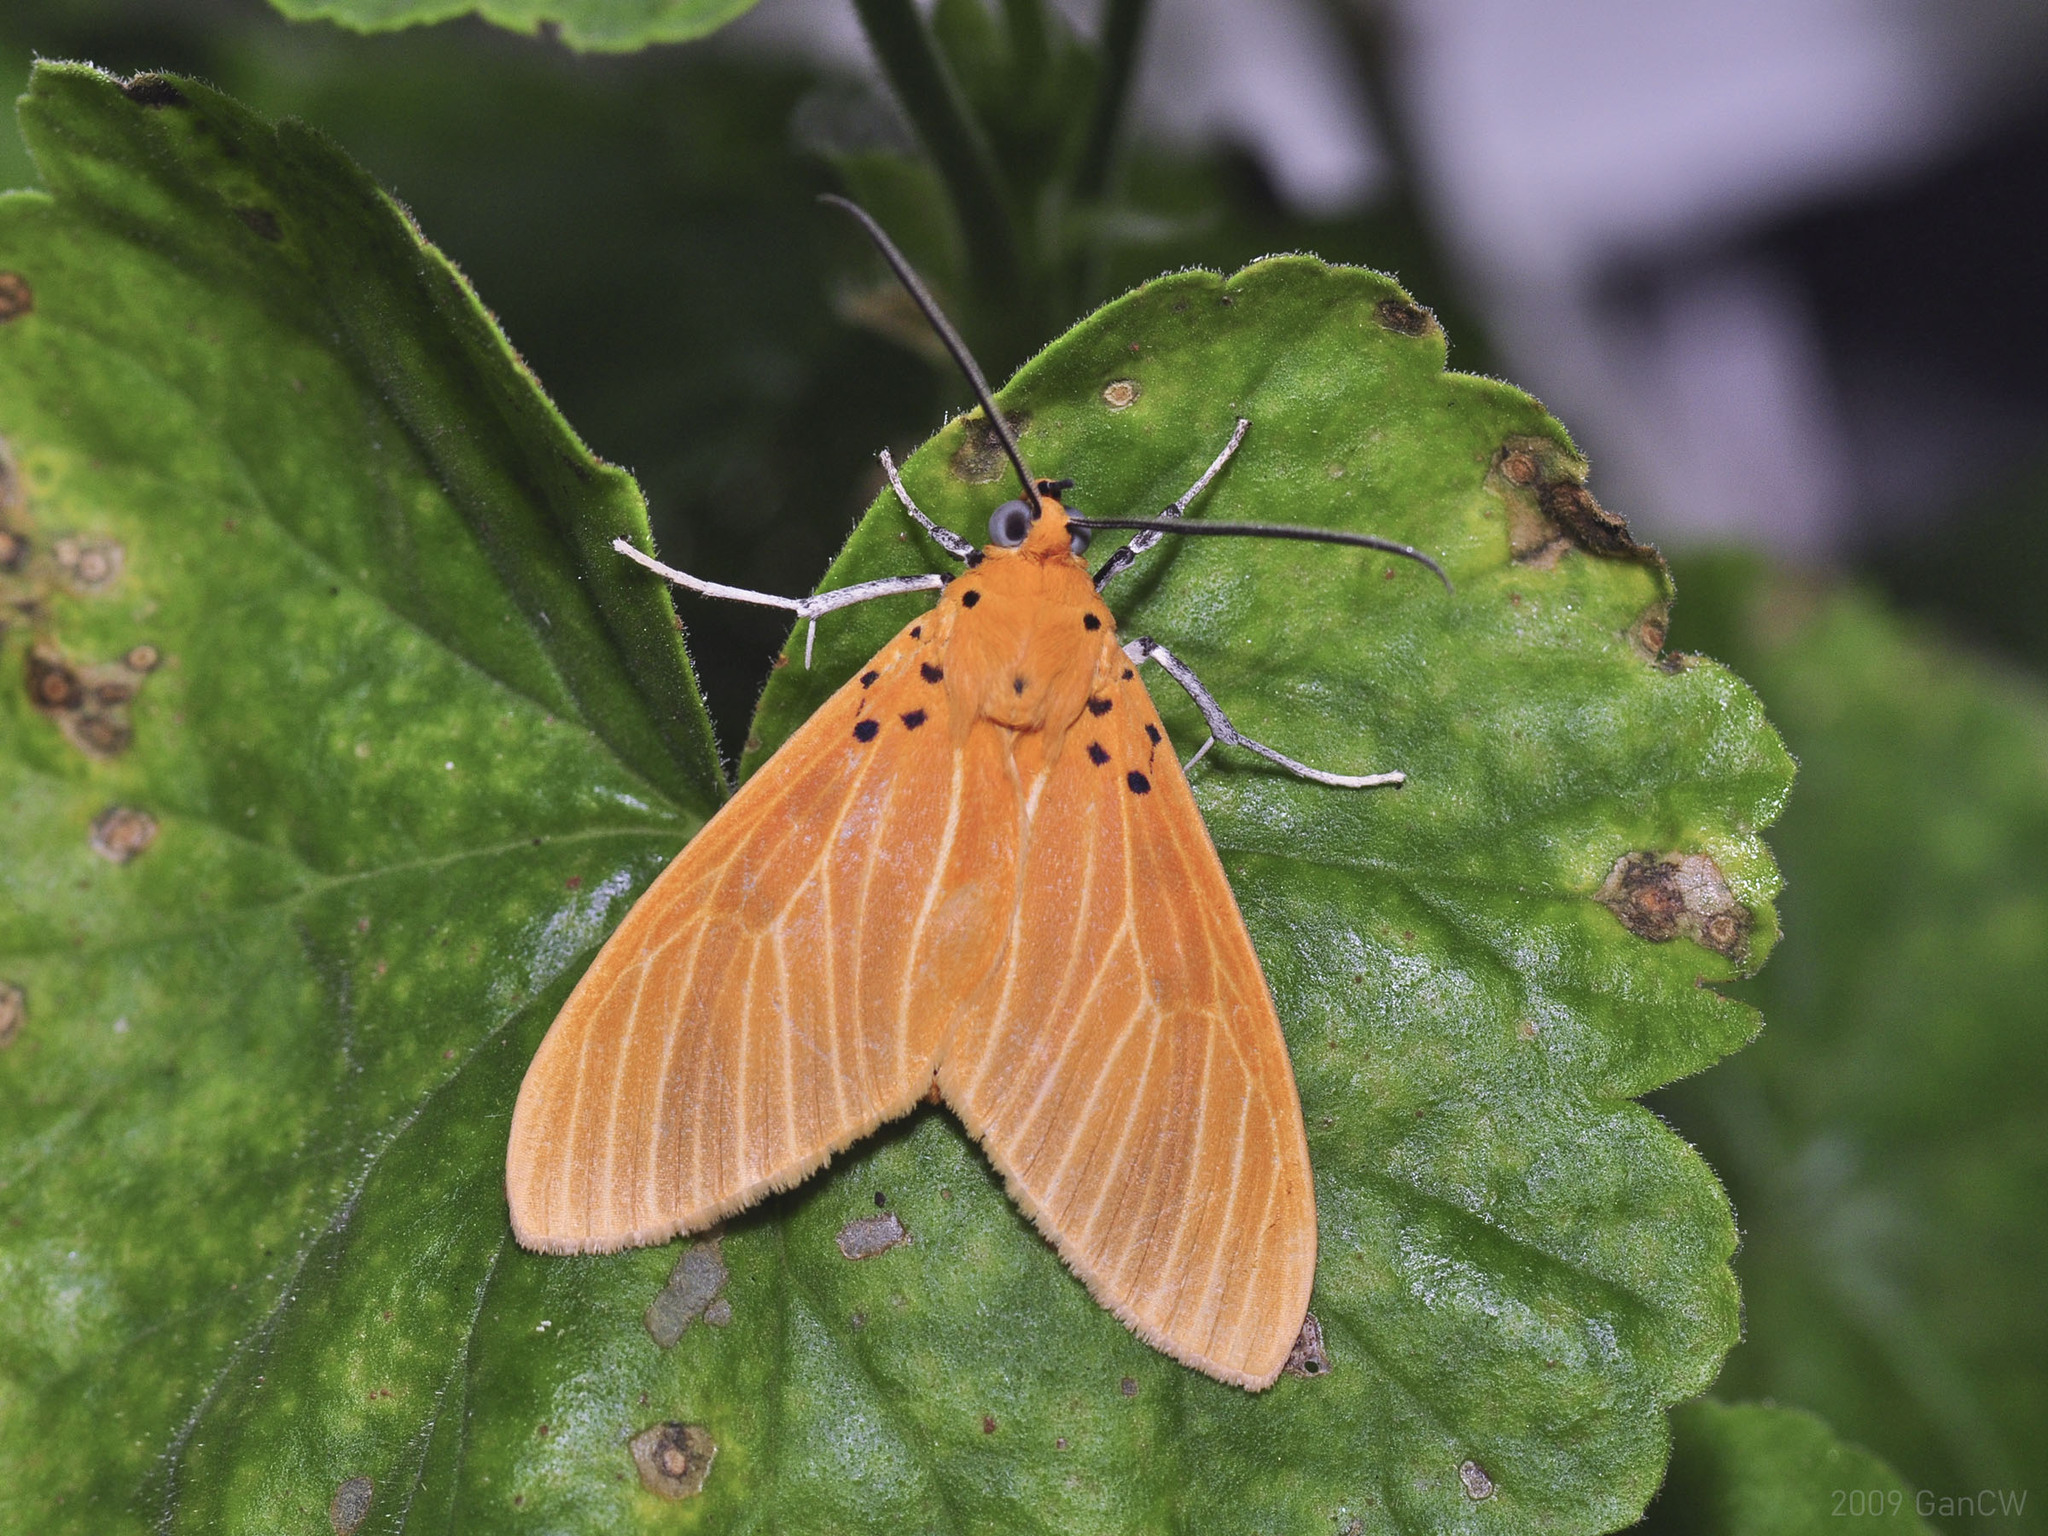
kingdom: Animalia
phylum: Arthropoda
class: Insecta
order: Lepidoptera
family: Erebidae
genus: Asota
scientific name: Asota egens
